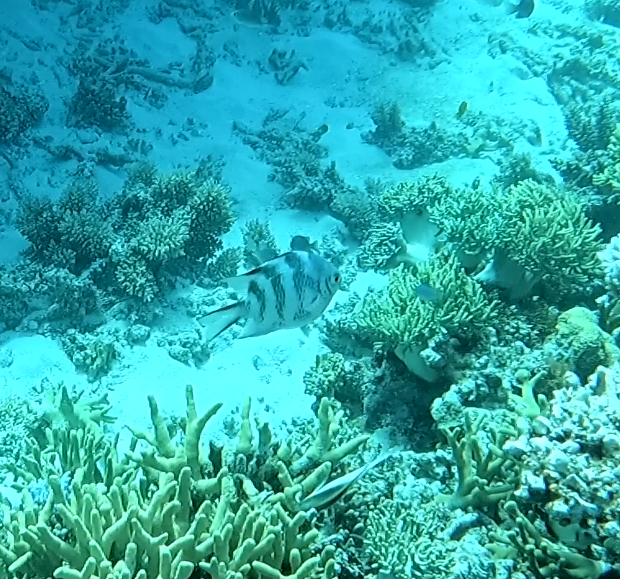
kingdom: Animalia
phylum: Chordata
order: Perciformes
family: Pomacentridae
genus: Amblyglyphidodon
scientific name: Amblyglyphidodon curacao
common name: Staghorn damsel
